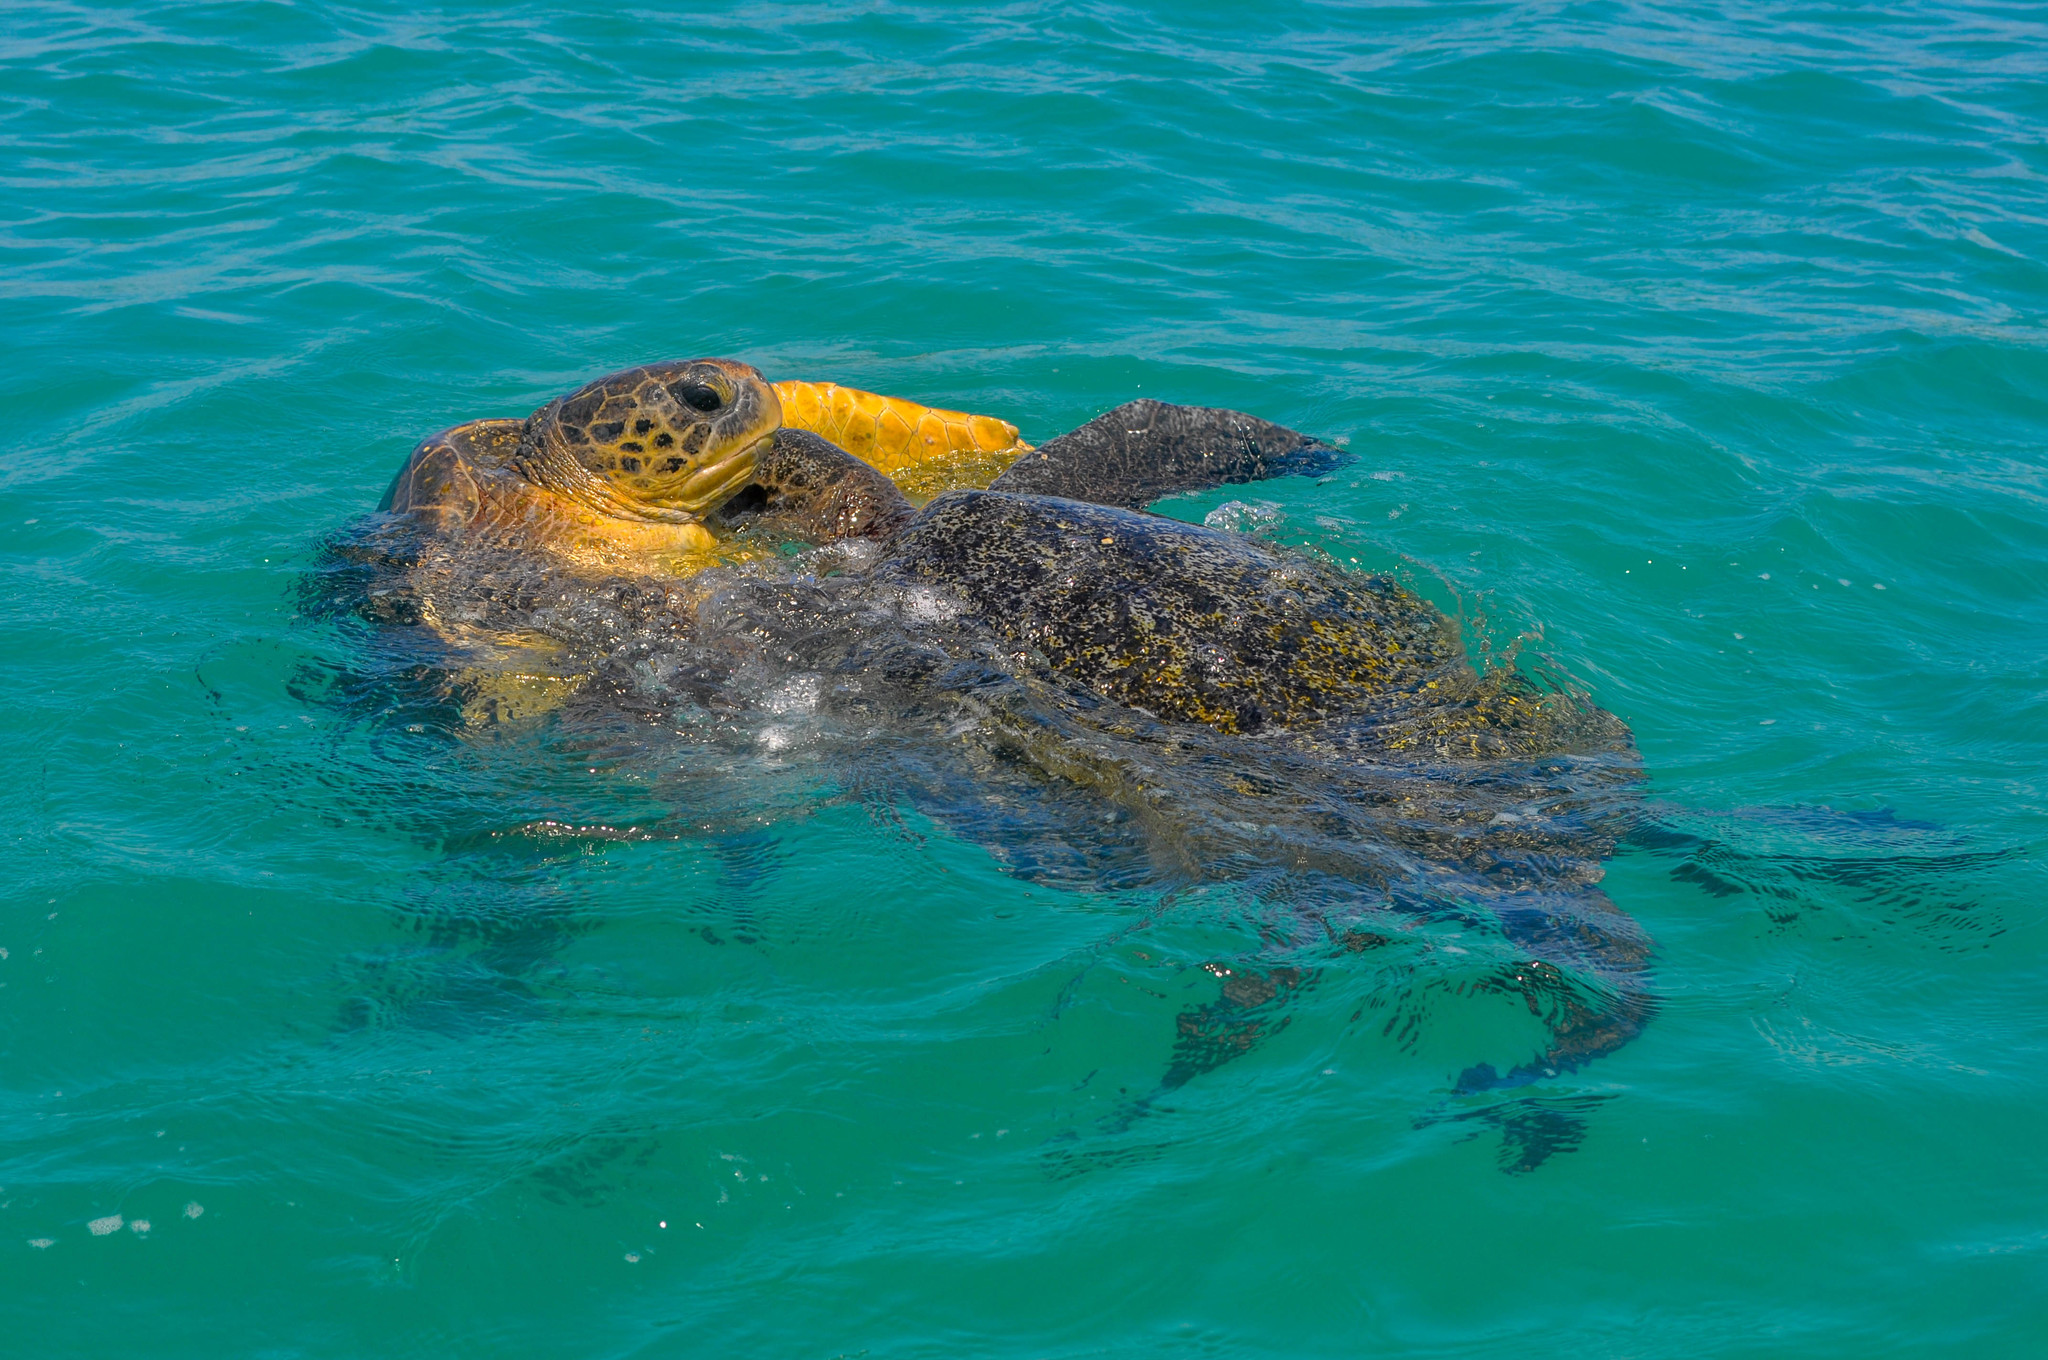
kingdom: Animalia
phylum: Chordata
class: Testudines
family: Cheloniidae
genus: Chelonia
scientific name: Chelonia mydas
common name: Green turtle
